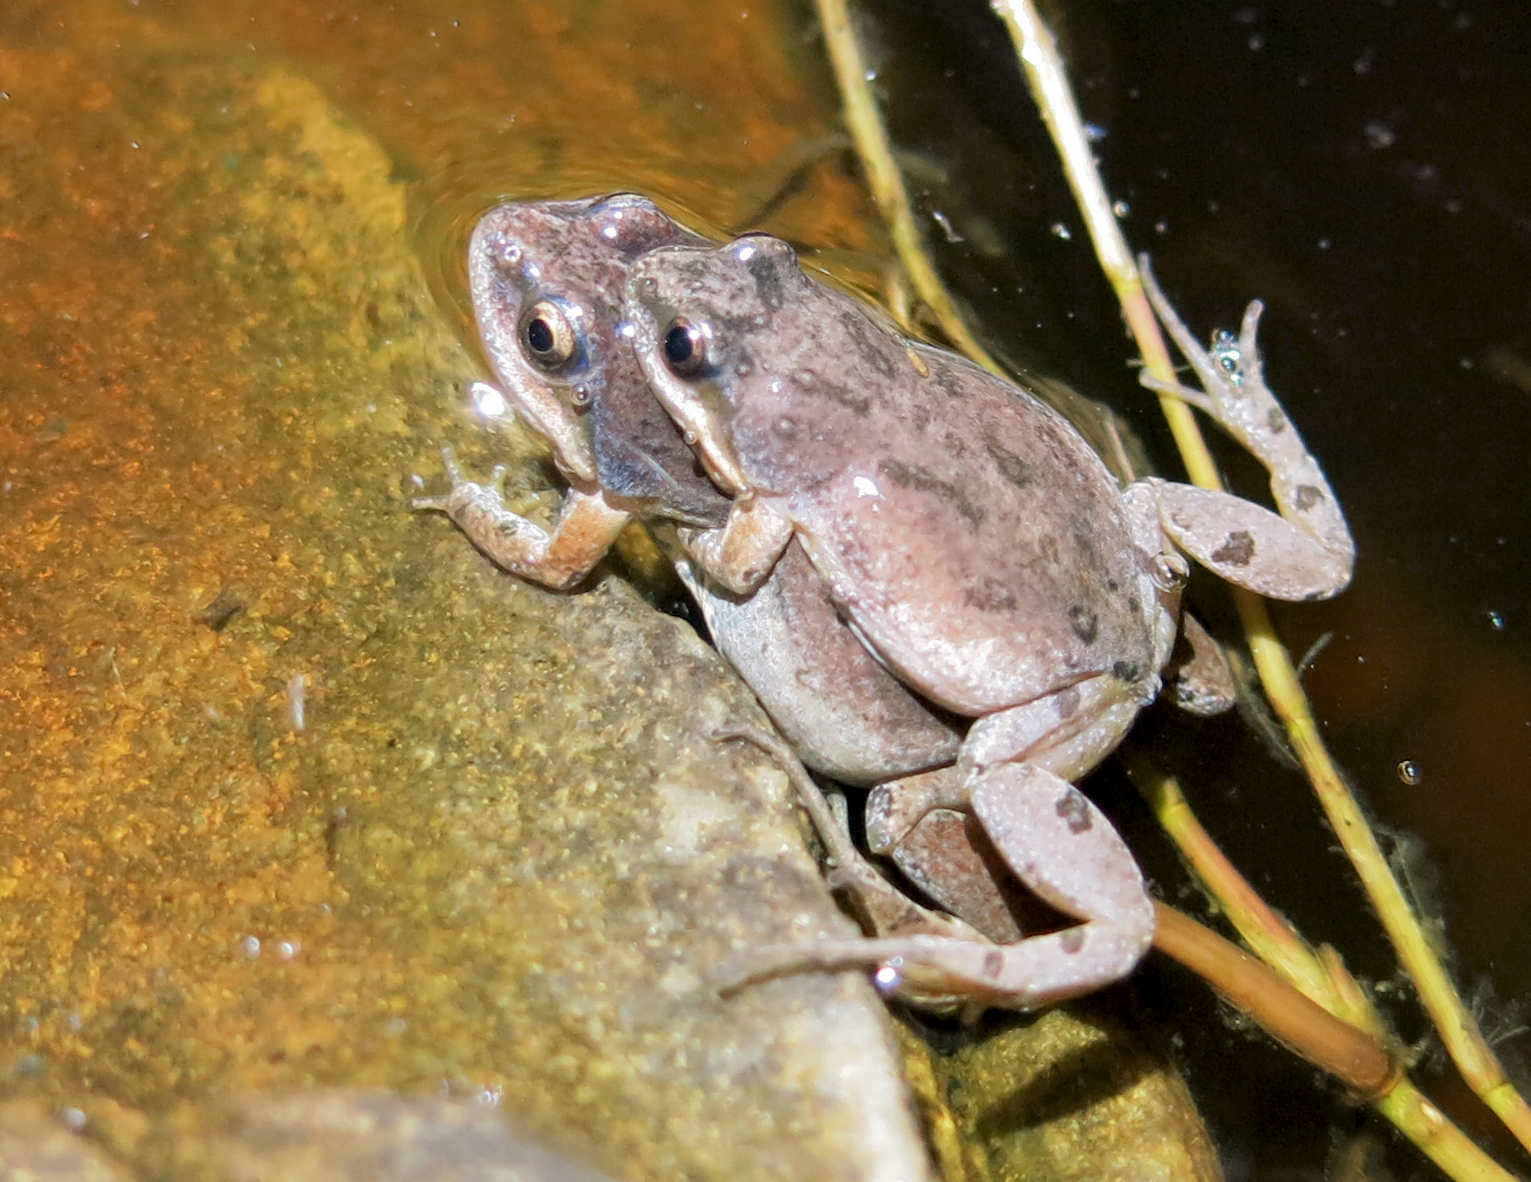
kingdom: Animalia
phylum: Chordata
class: Amphibia
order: Anura
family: Pyxicephalidae
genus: Cacosternum
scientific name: Cacosternum australis
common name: Southern dainty frog
